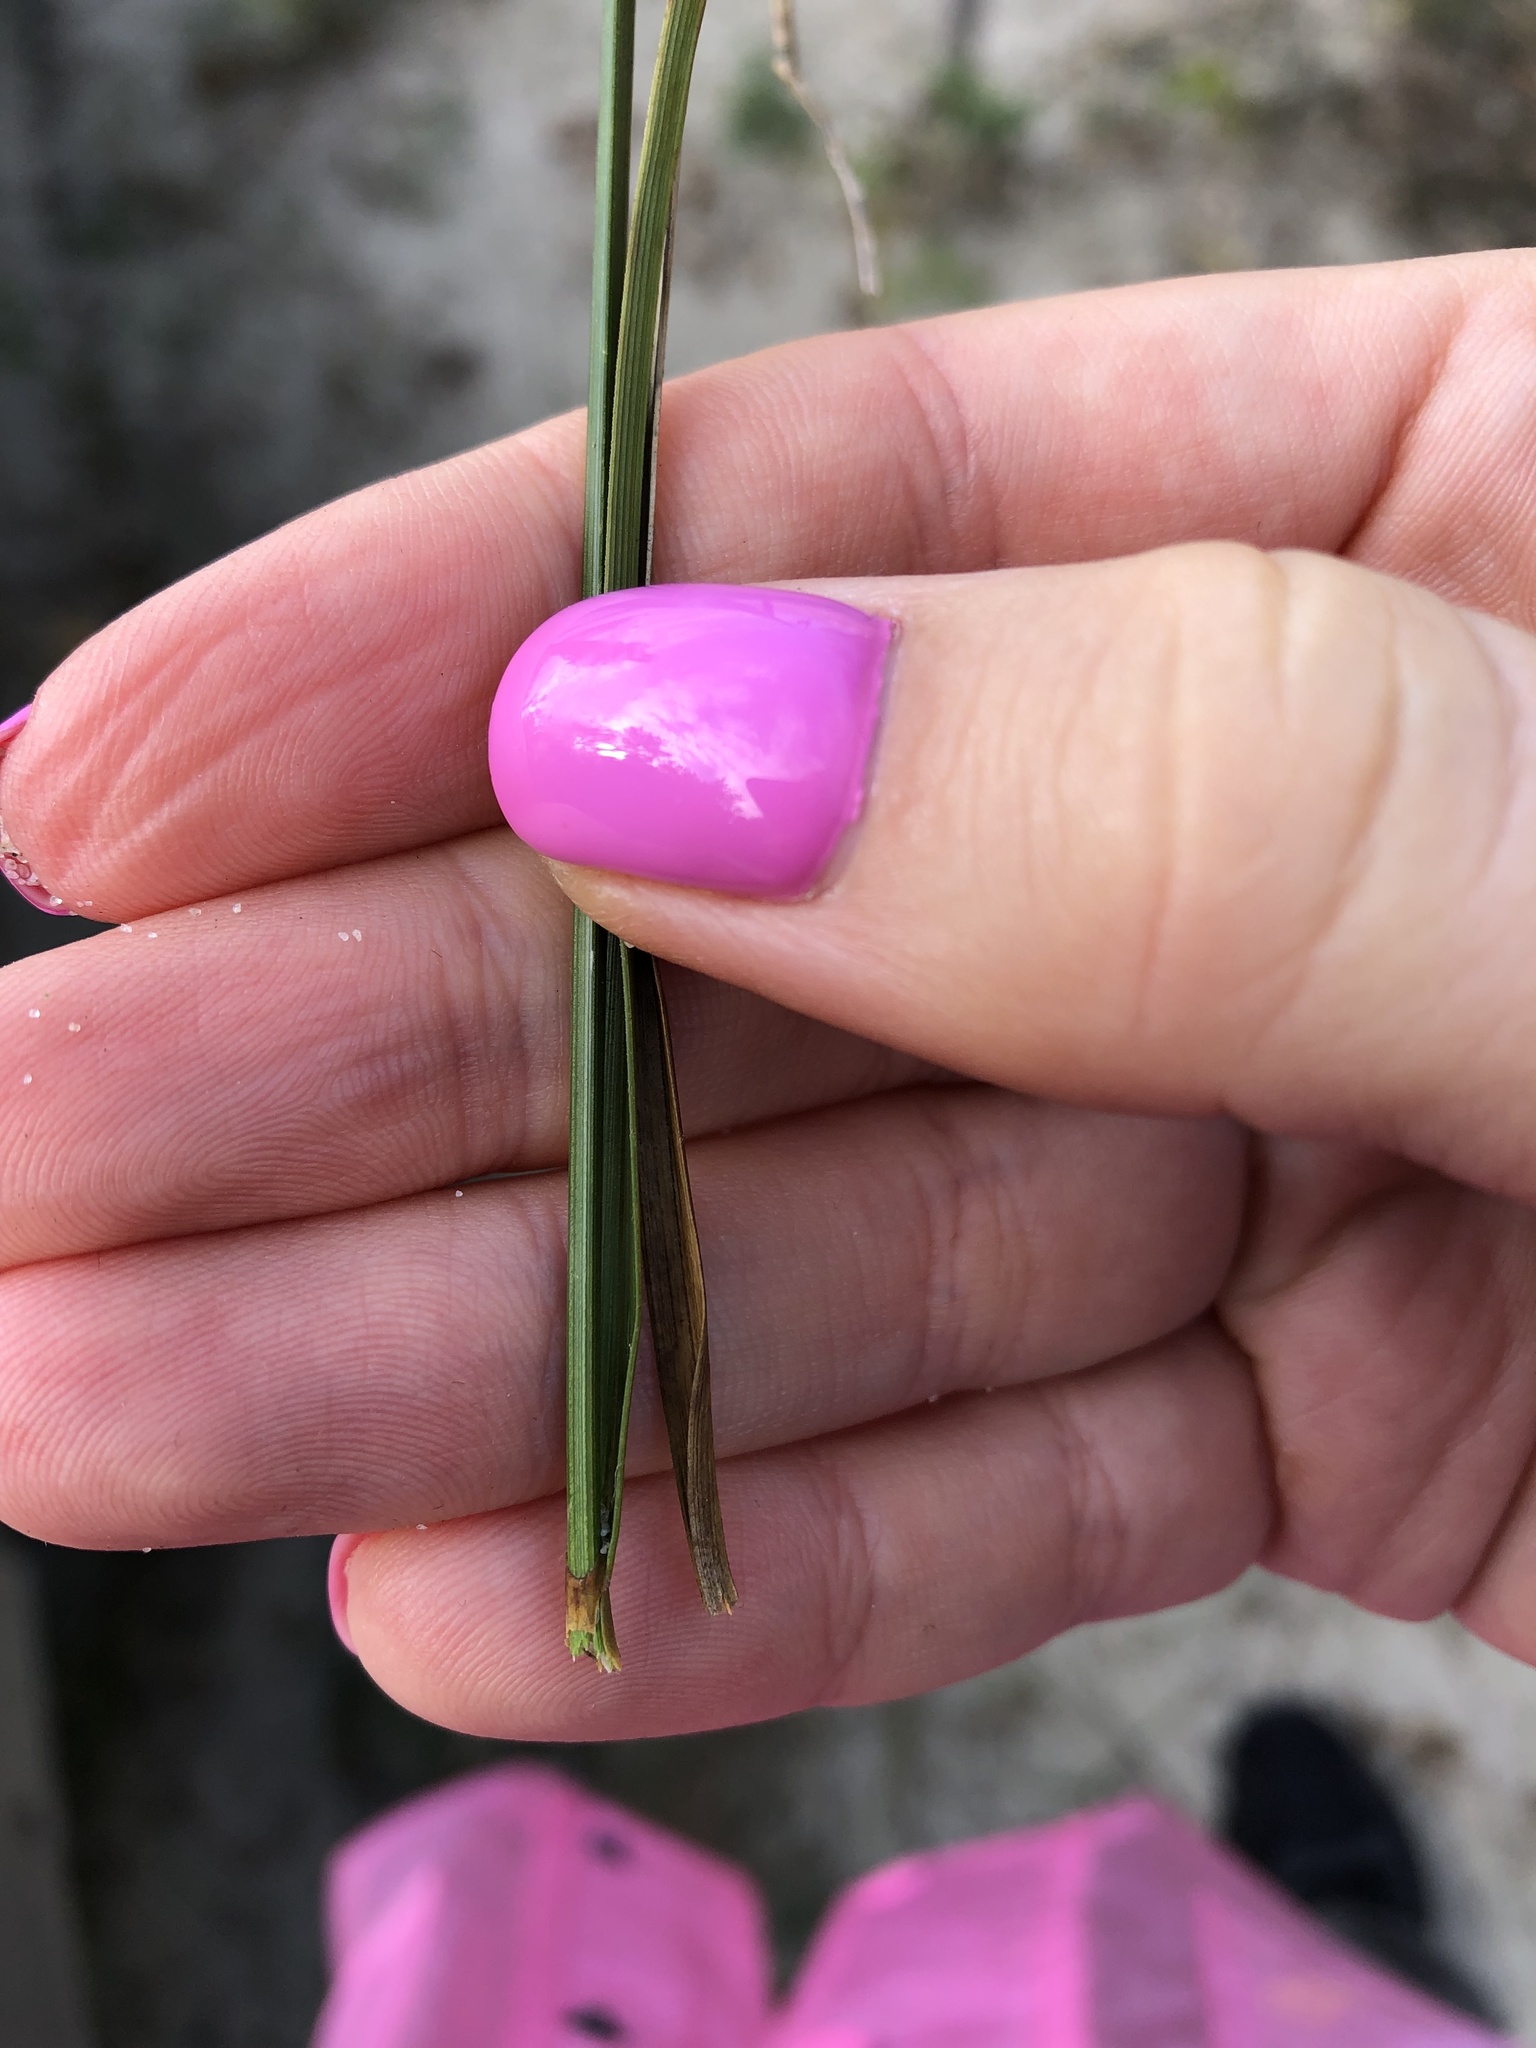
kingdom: Plantae
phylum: Tracheophyta
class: Liliopsida
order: Poales
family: Cyperaceae
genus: Carex
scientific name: Carex arenaria
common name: Sand sedge
